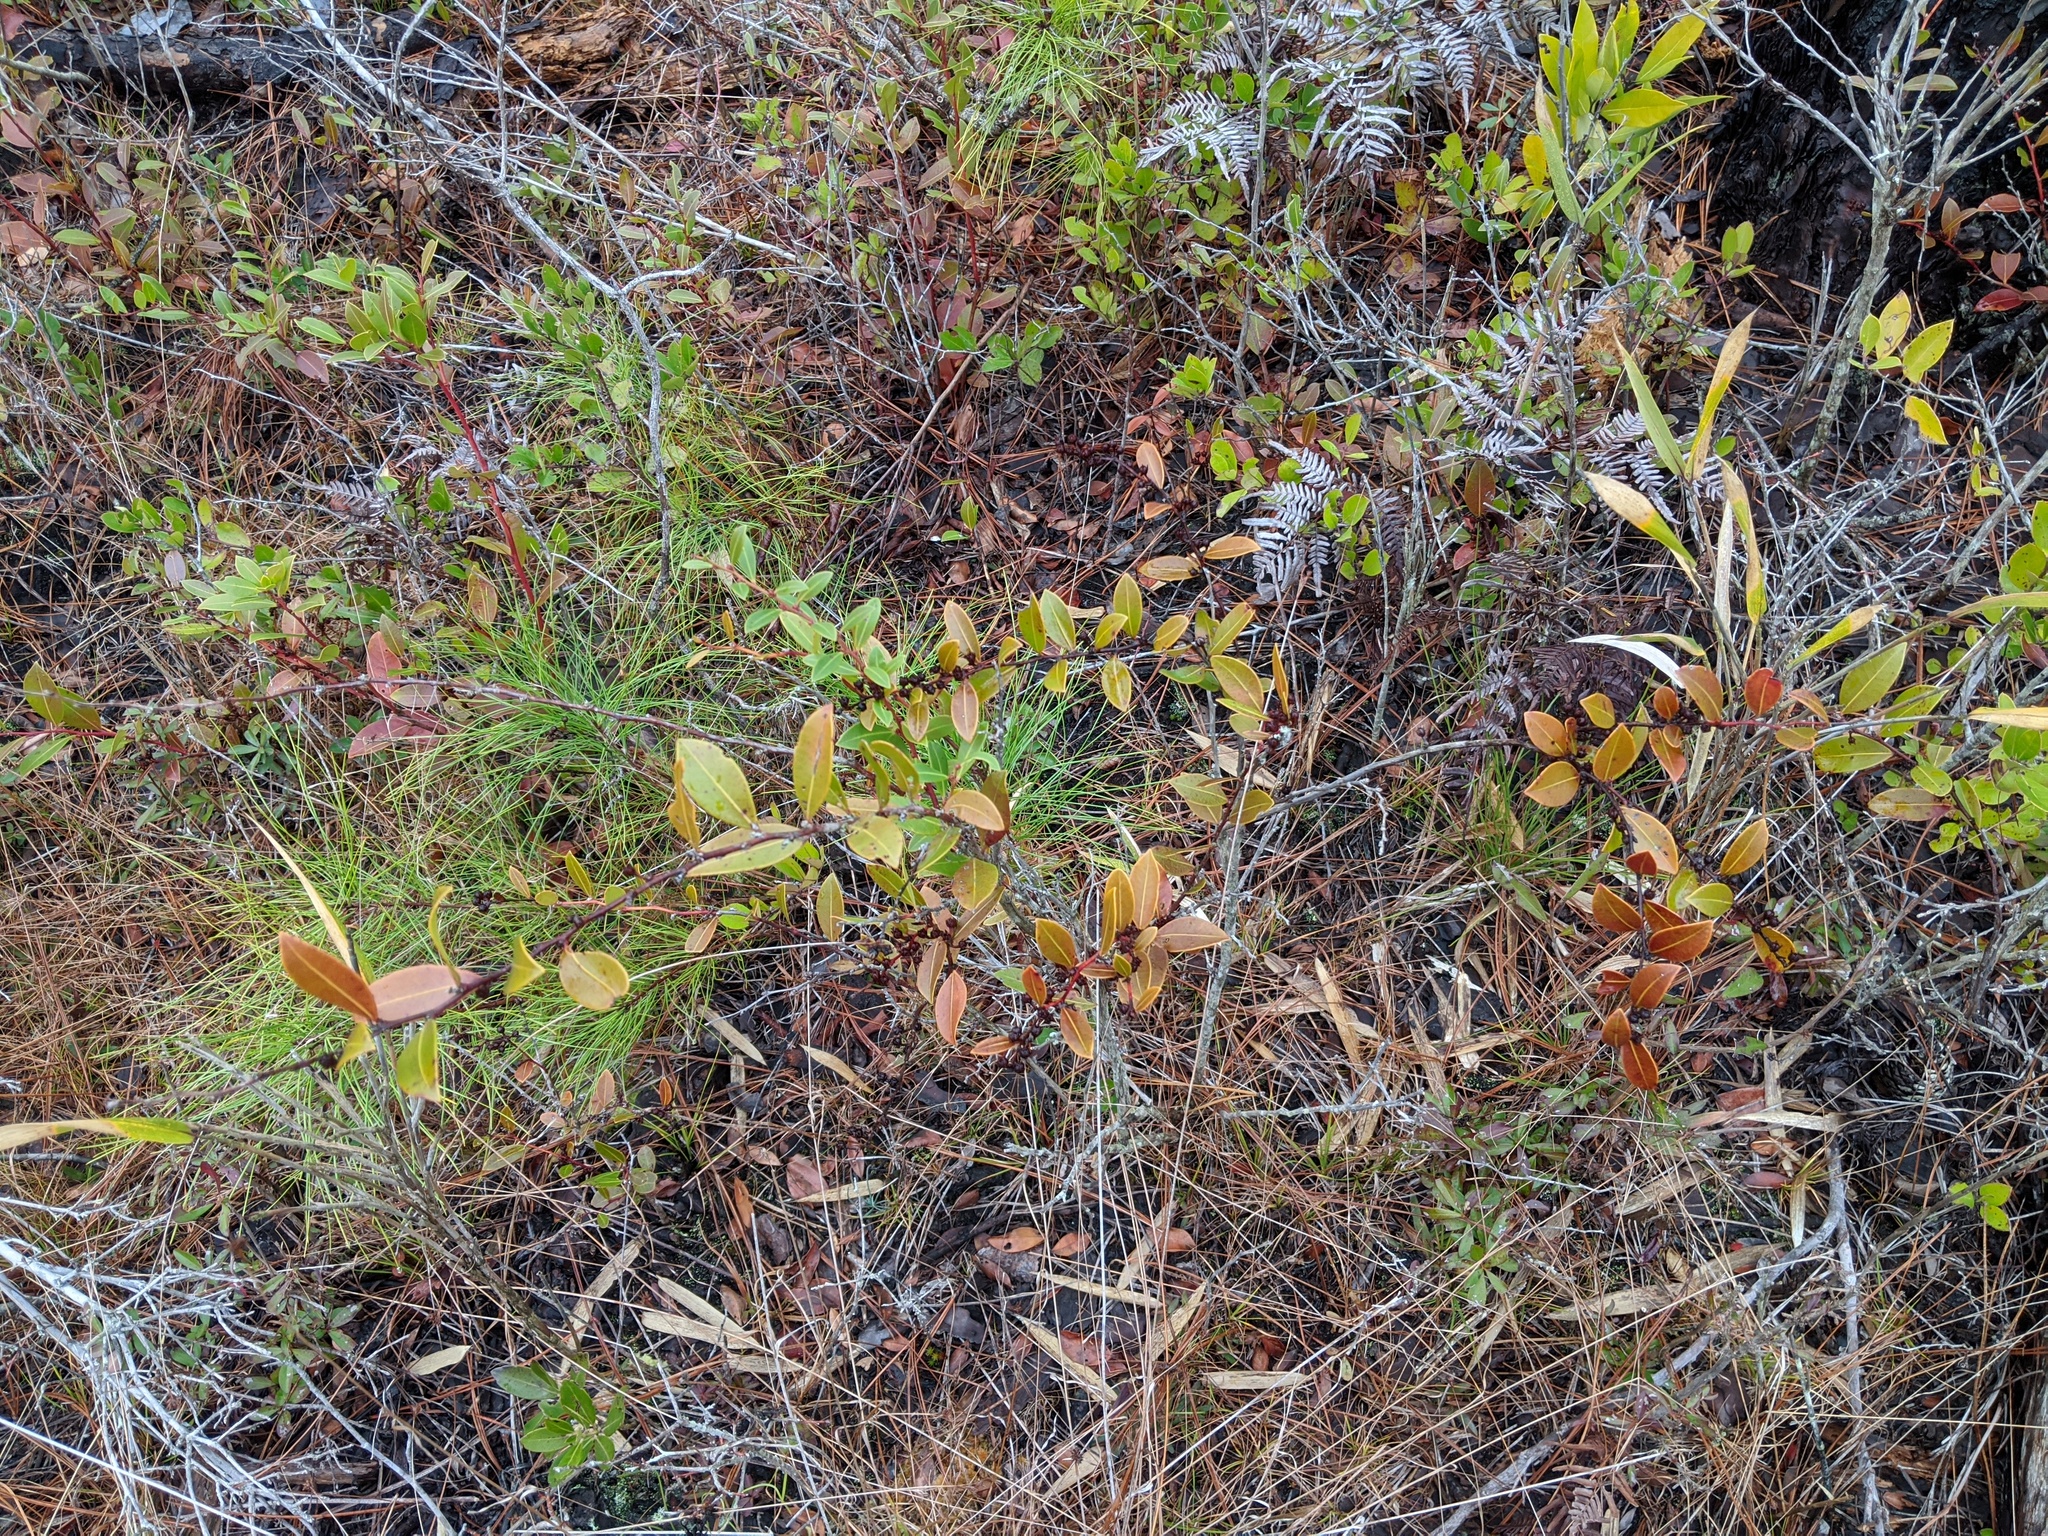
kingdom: Plantae
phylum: Tracheophyta
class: Magnoliopsida
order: Ericales
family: Ericaceae
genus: Lyonia
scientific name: Lyonia lucida
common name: Fetterbush
